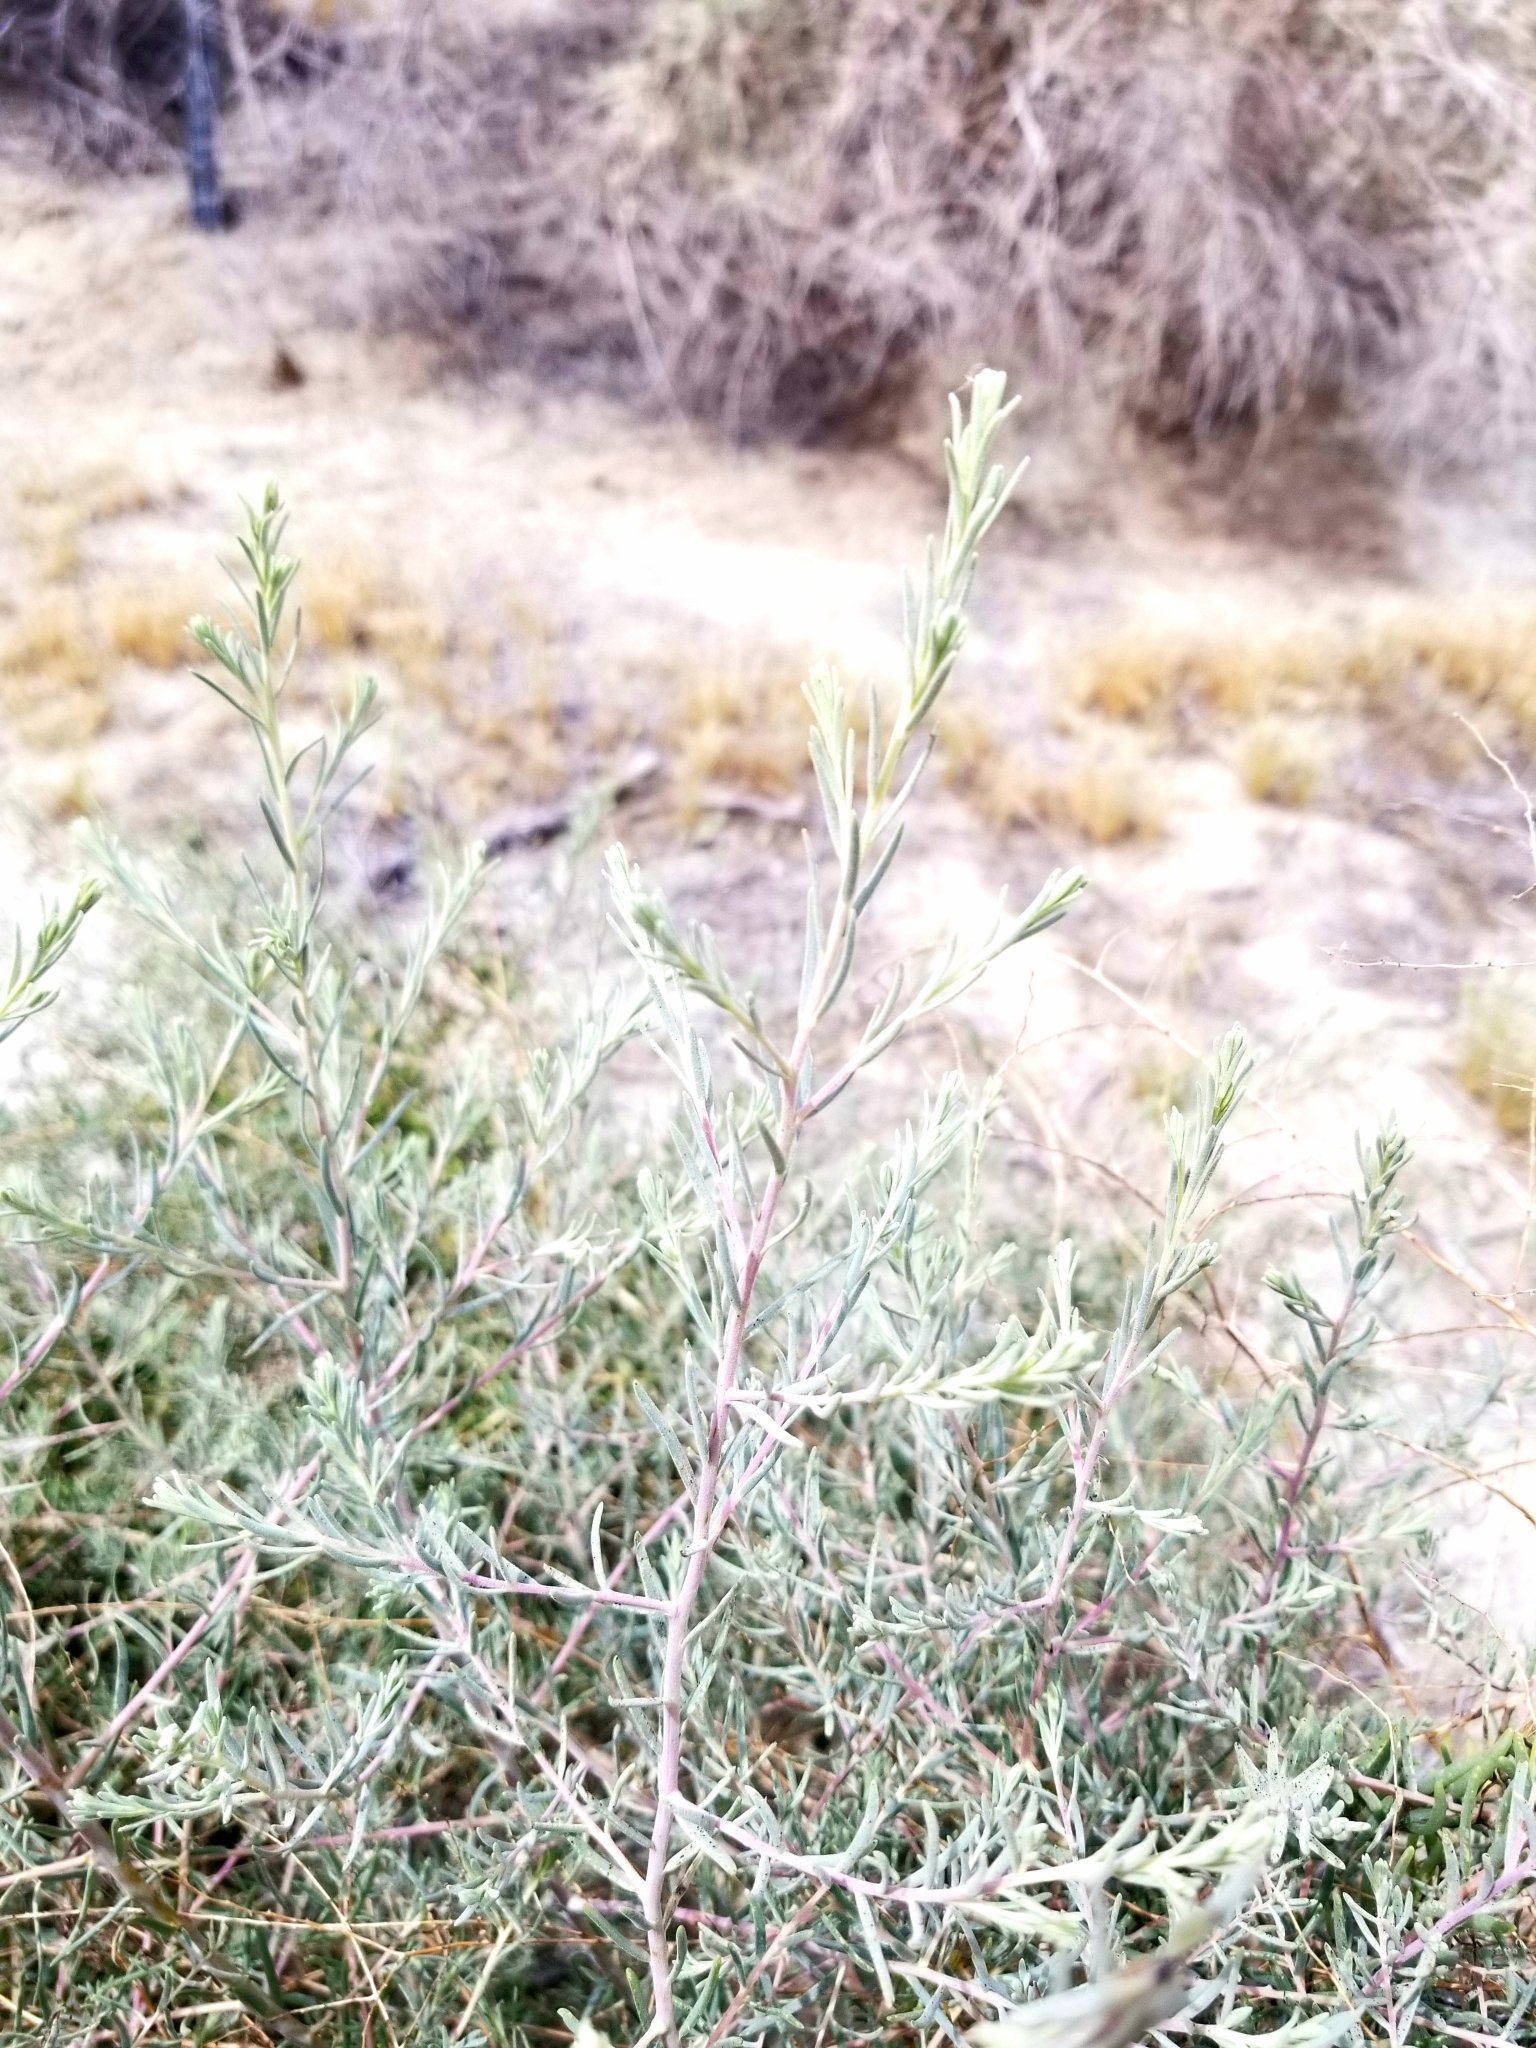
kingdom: Plantae
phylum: Tracheophyta
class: Magnoliopsida
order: Caryophyllales
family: Amaranthaceae
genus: Suaeda
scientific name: Suaeda nigra
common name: Bush seepweed
